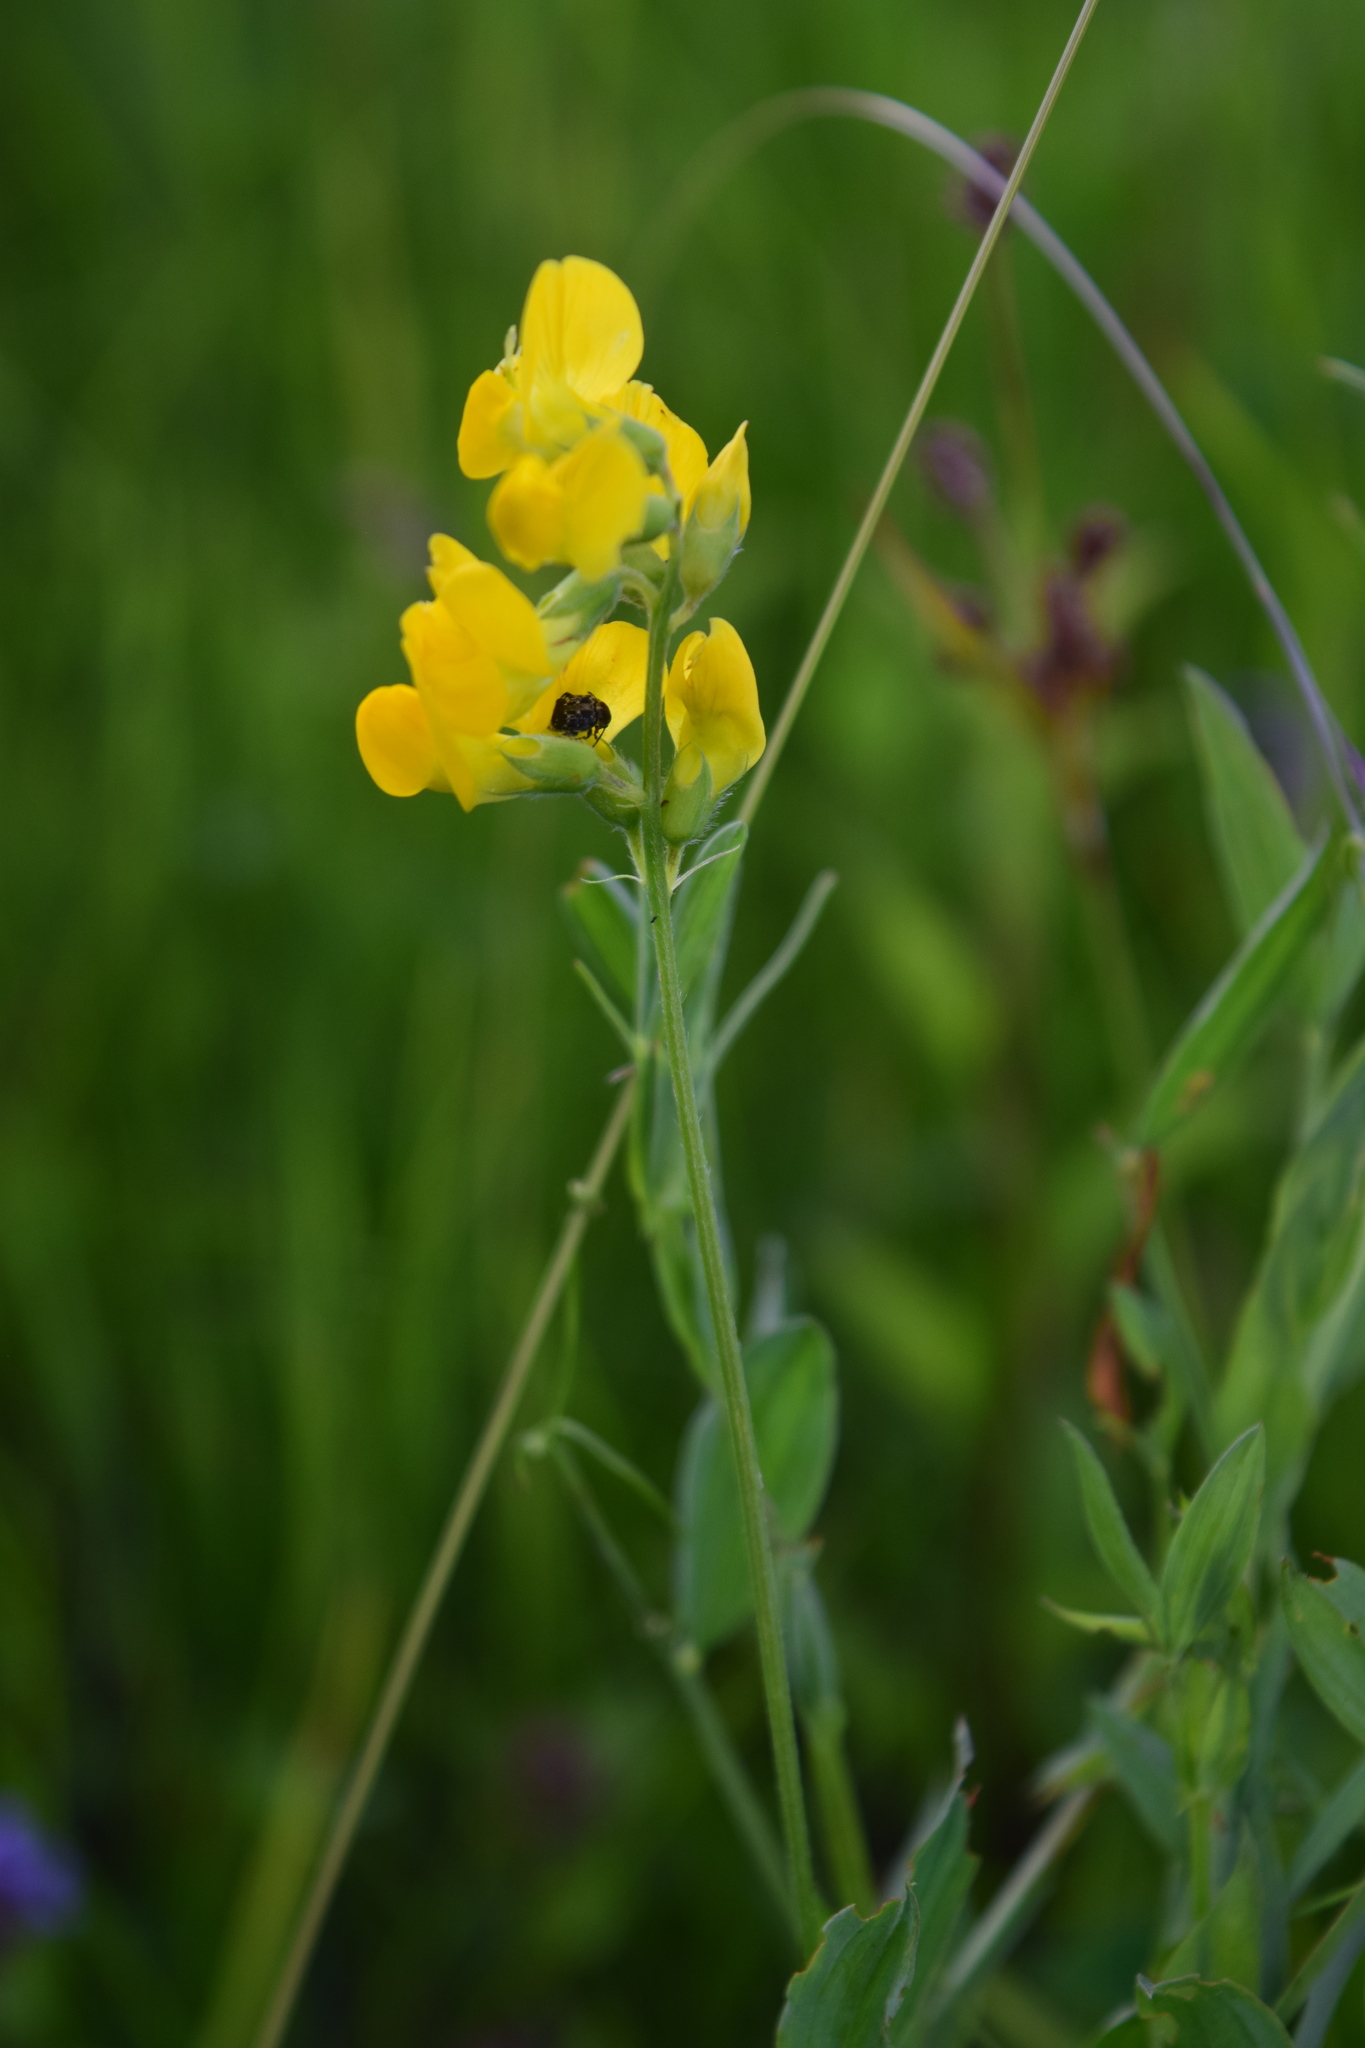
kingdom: Plantae
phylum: Tracheophyta
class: Magnoliopsida
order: Fabales
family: Fabaceae
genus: Lathyrus
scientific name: Lathyrus pratensis
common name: Meadow vetchling
